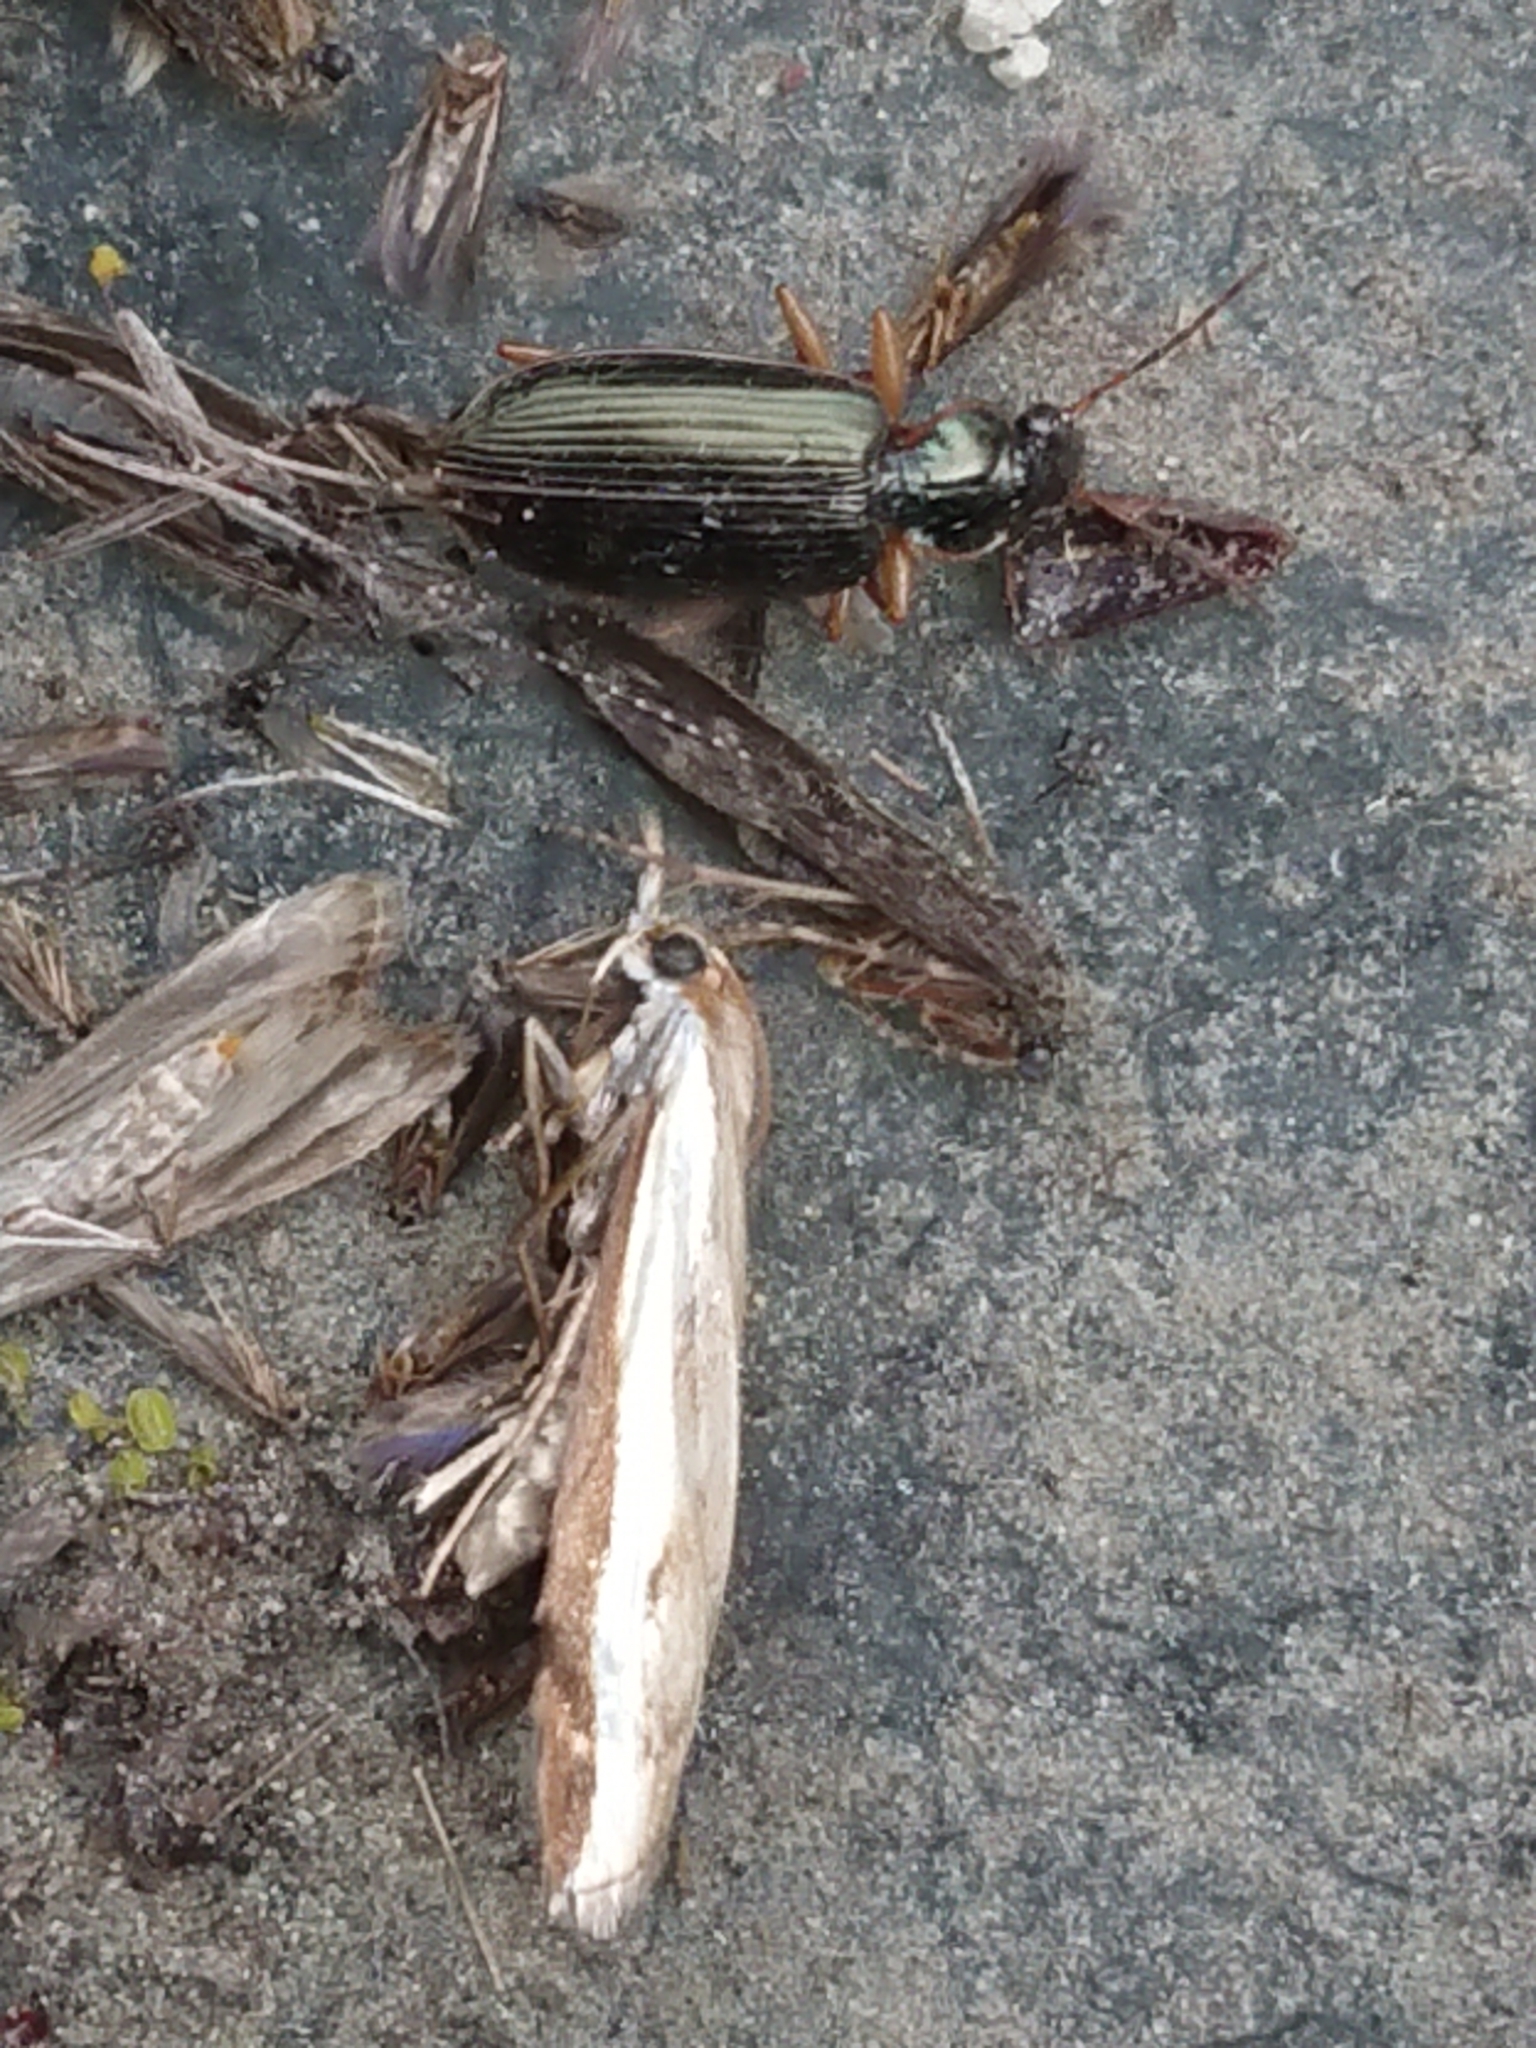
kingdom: Animalia
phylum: Arthropoda
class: Insecta
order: Coleoptera
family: Carabidae
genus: Notagonum
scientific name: Notagonum submetallicum
